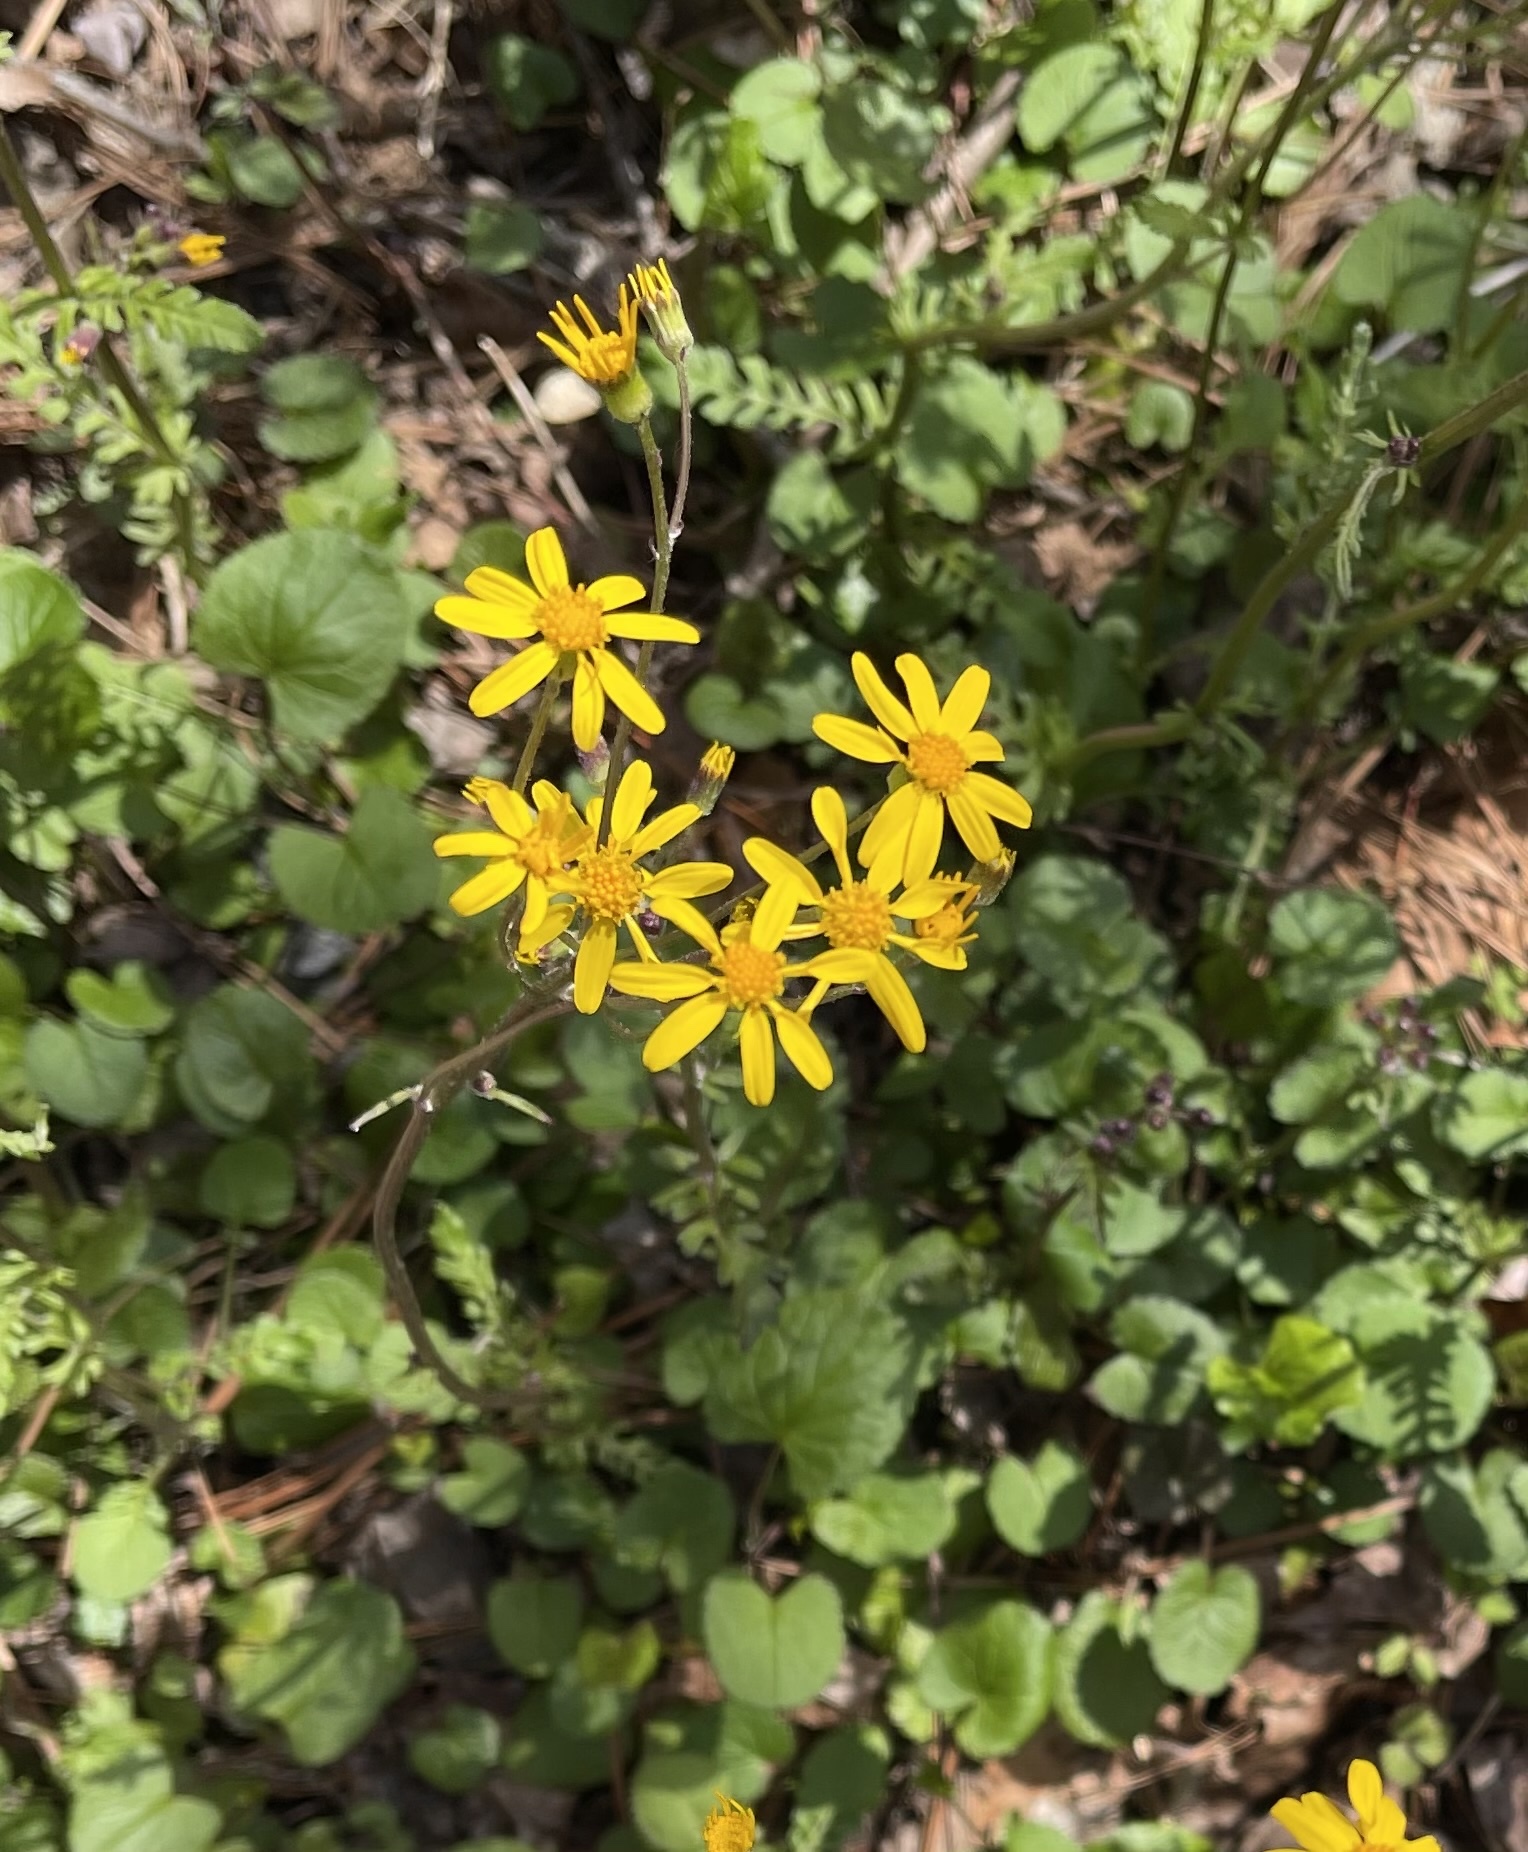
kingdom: Plantae
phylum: Tracheophyta
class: Magnoliopsida
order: Asterales
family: Asteraceae
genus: Packera
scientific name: Packera aurea
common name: Golden groundsel
